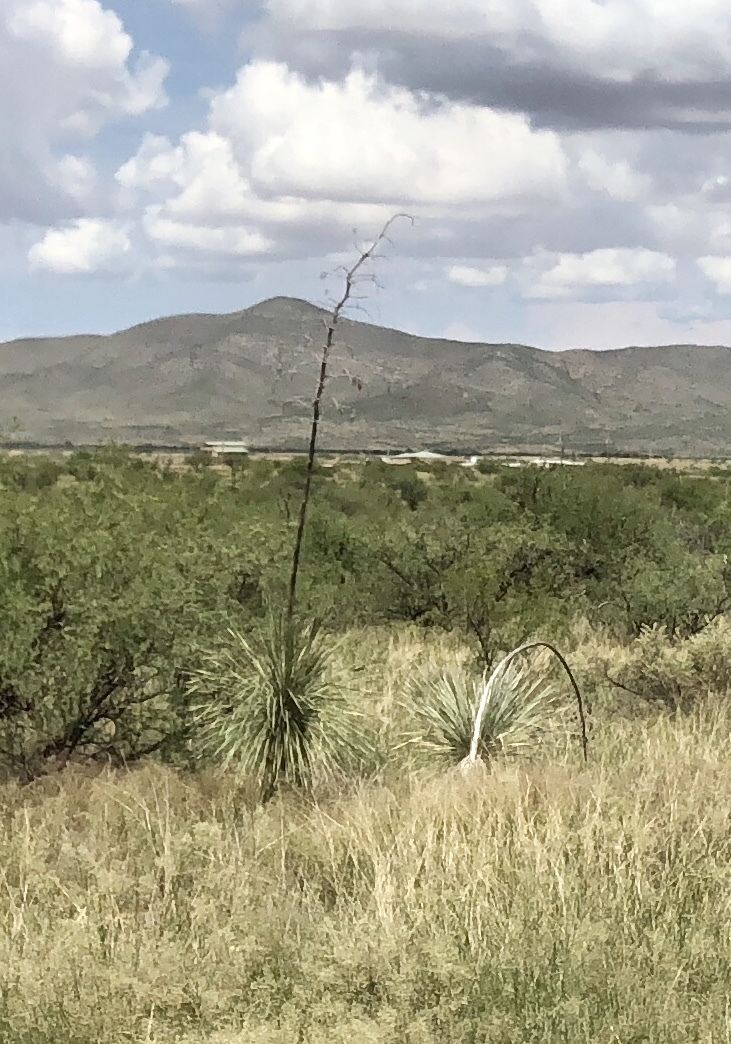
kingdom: Plantae
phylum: Tracheophyta
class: Liliopsida
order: Asparagales
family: Asparagaceae
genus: Yucca
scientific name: Yucca elata
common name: Palmella
